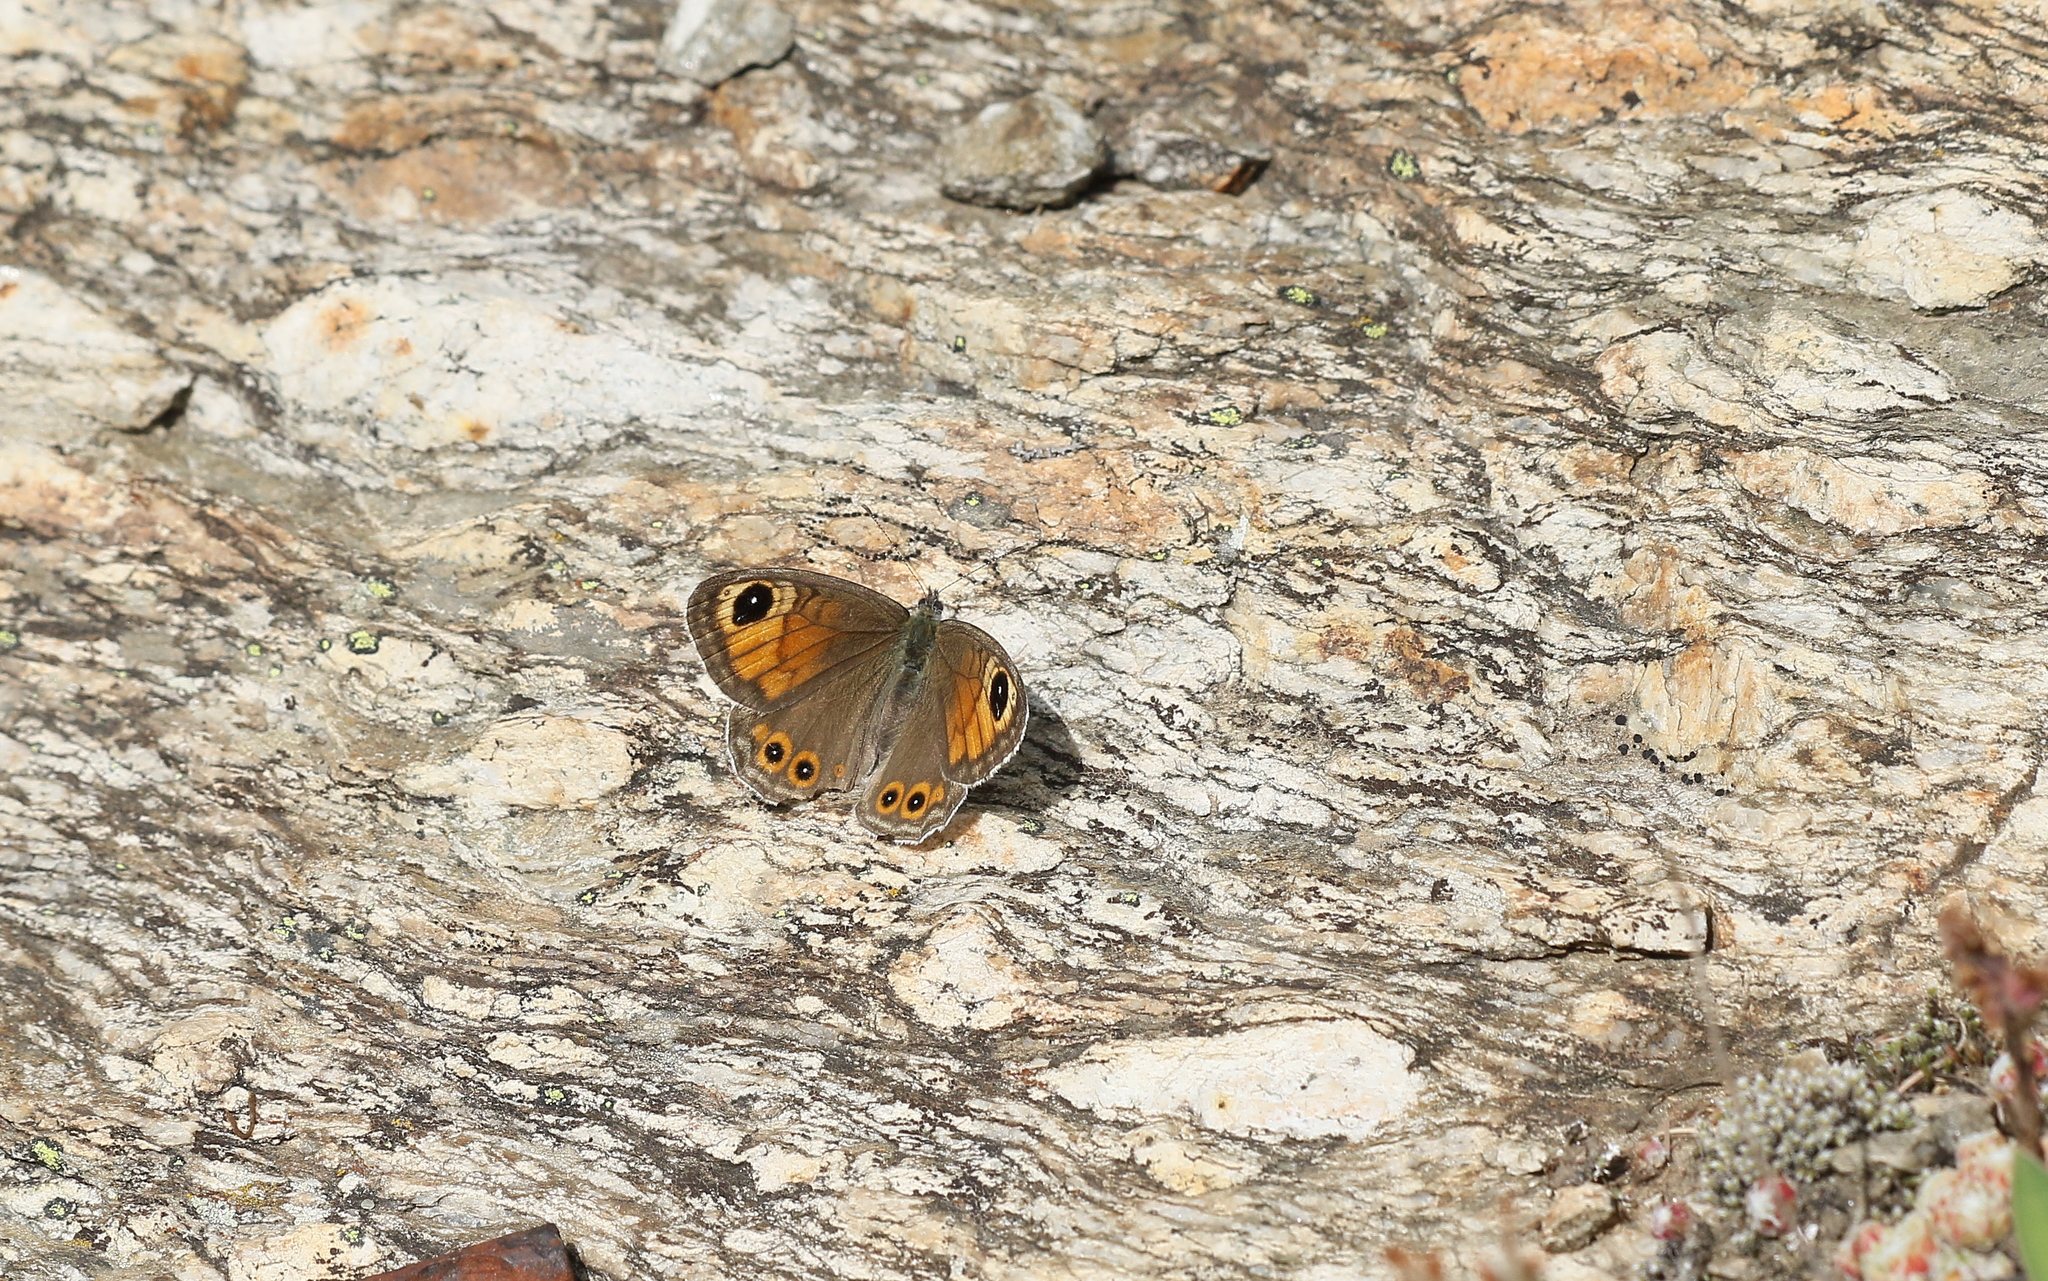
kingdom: Animalia
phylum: Arthropoda
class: Insecta
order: Lepidoptera
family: Nymphalidae
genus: Pararge
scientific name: Pararge Lasiommata maera
